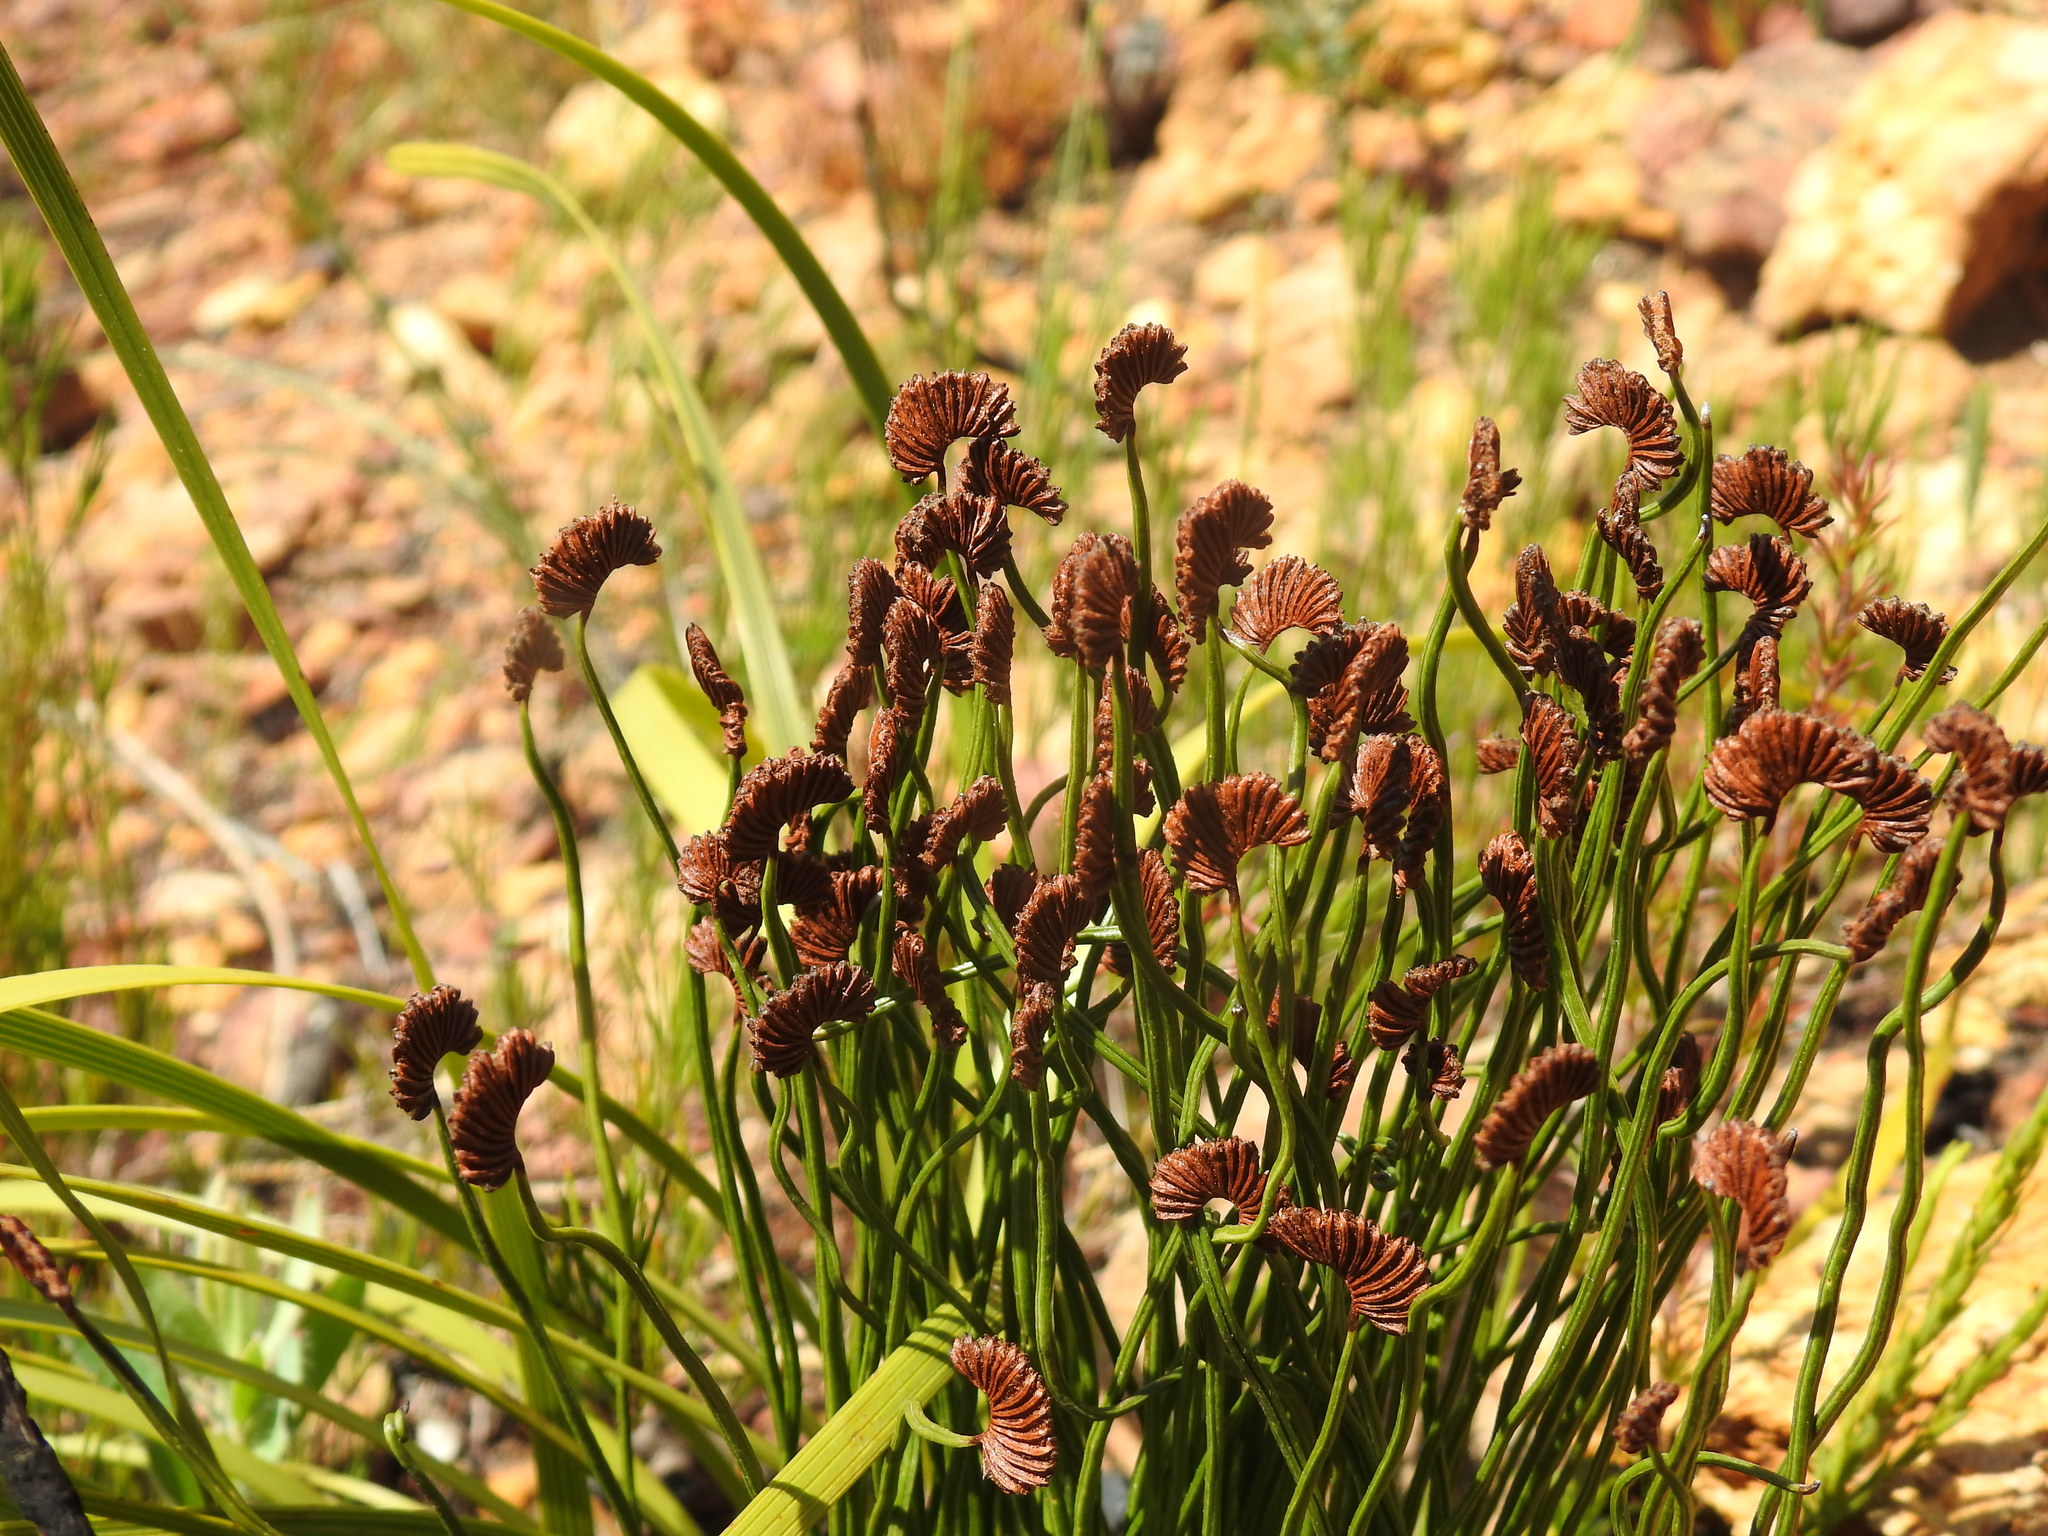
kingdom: Plantae
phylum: Tracheophyta
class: Polypodiopsida
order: Schizaeales
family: Schizaeaceae
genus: Schizaea
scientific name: Schizaea pectinata
